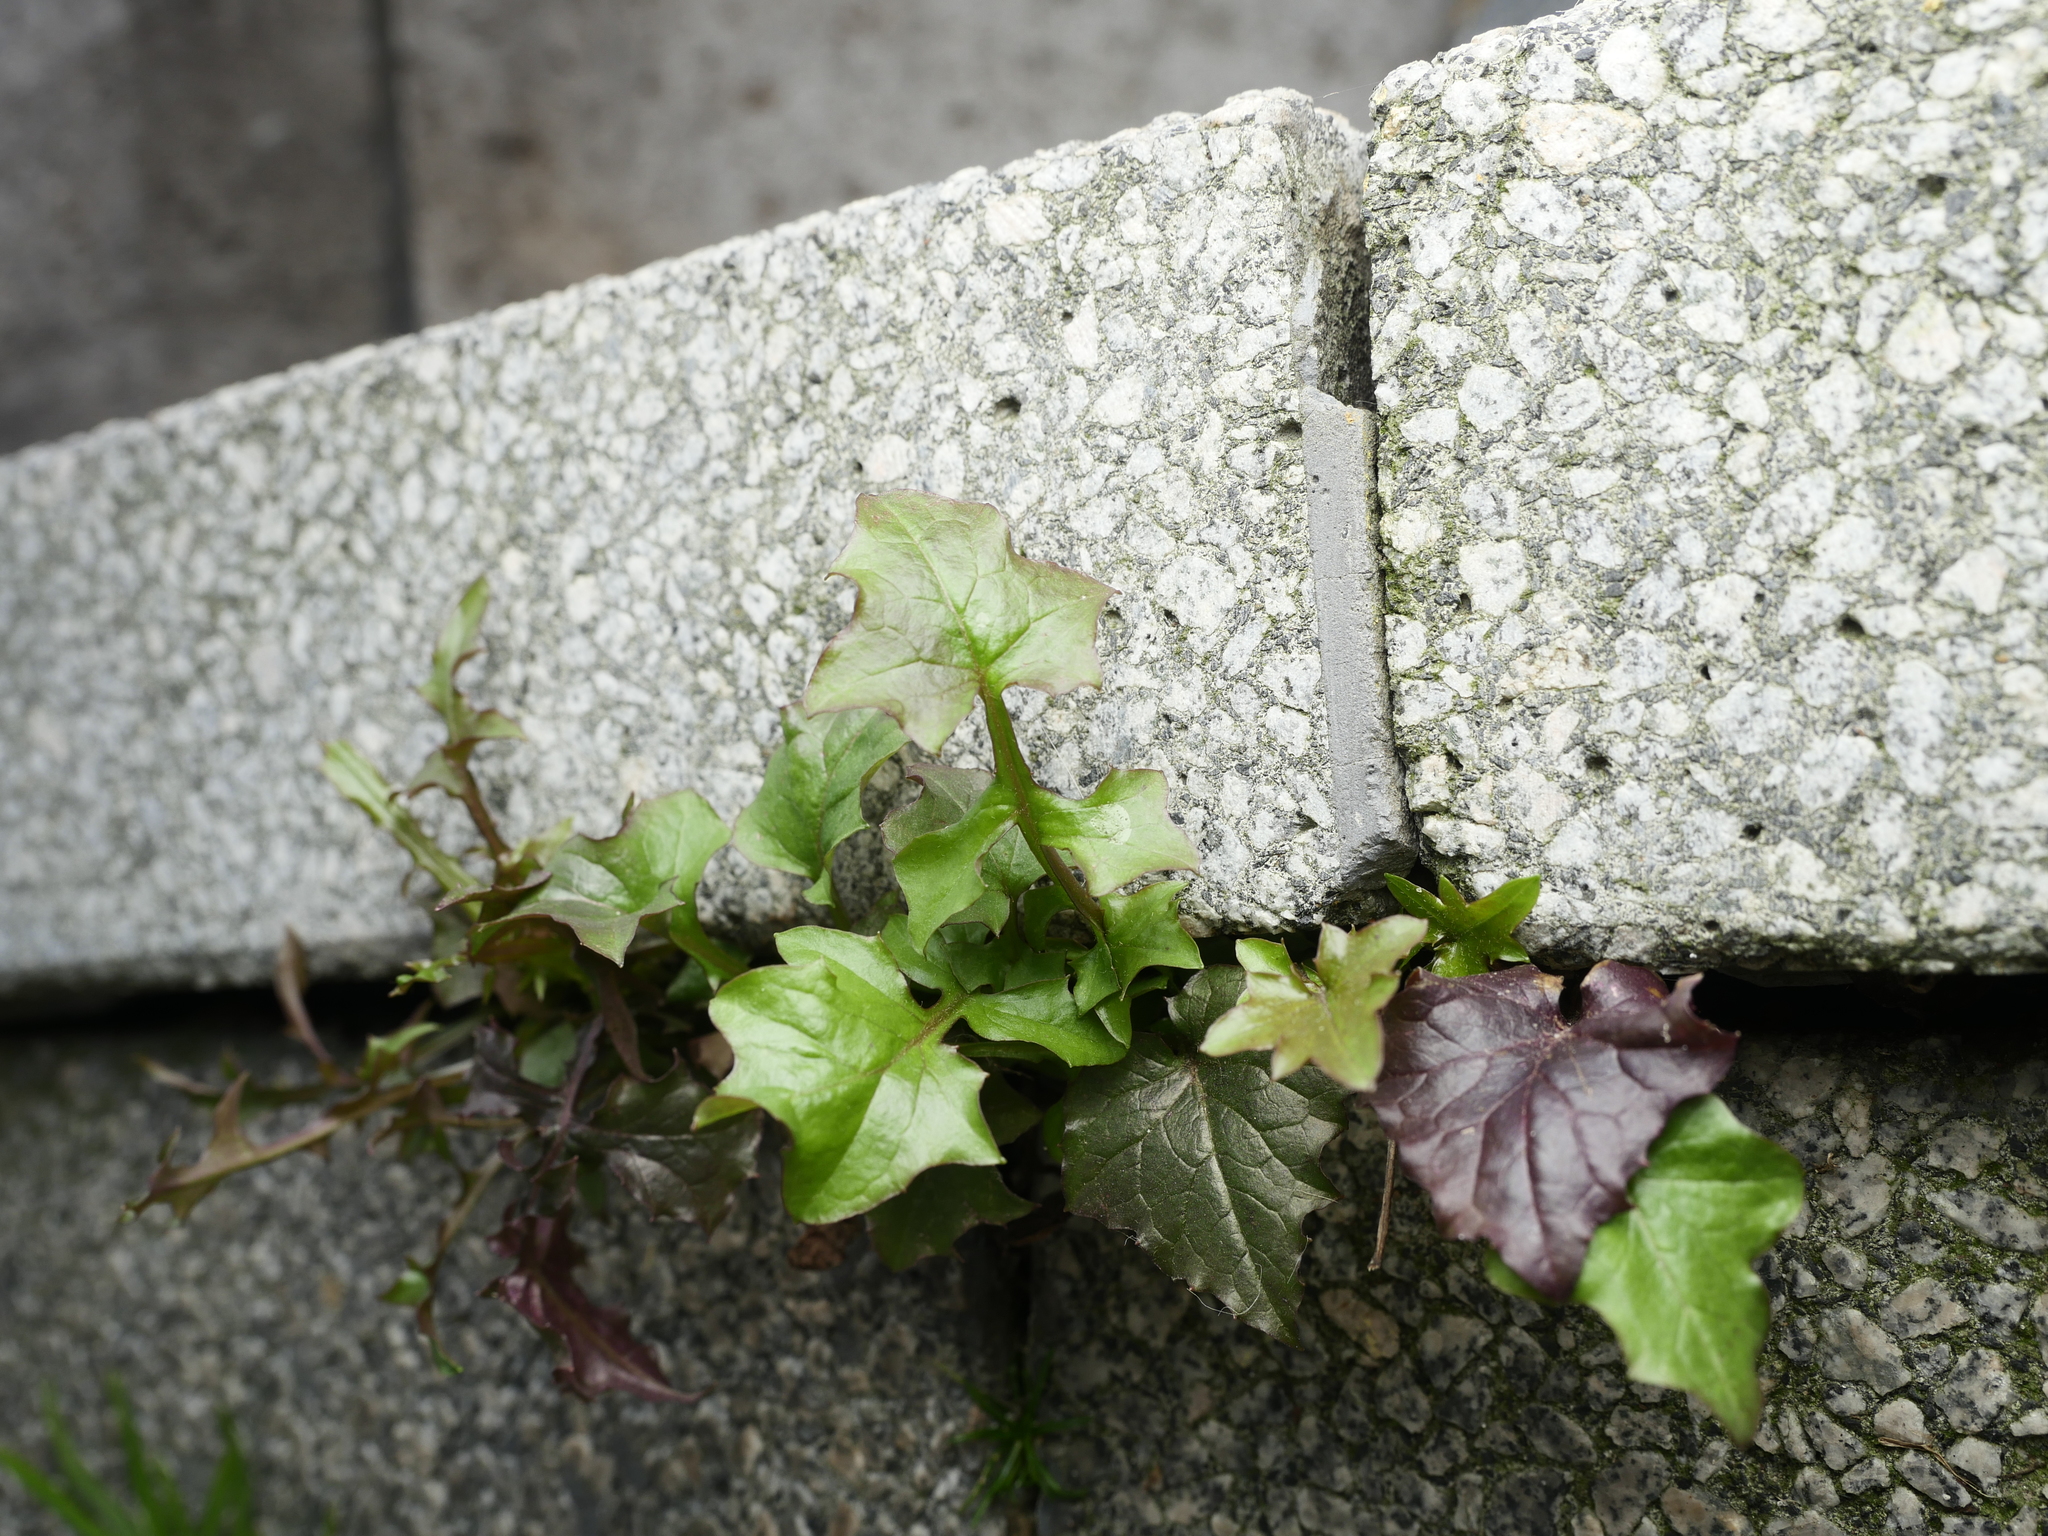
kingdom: Plantae
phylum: Tracheophyta
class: Magnoliopsida
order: Asterales
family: Asteraceae
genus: Mycelis
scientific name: Mycelis muralis
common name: Wall lettuce
